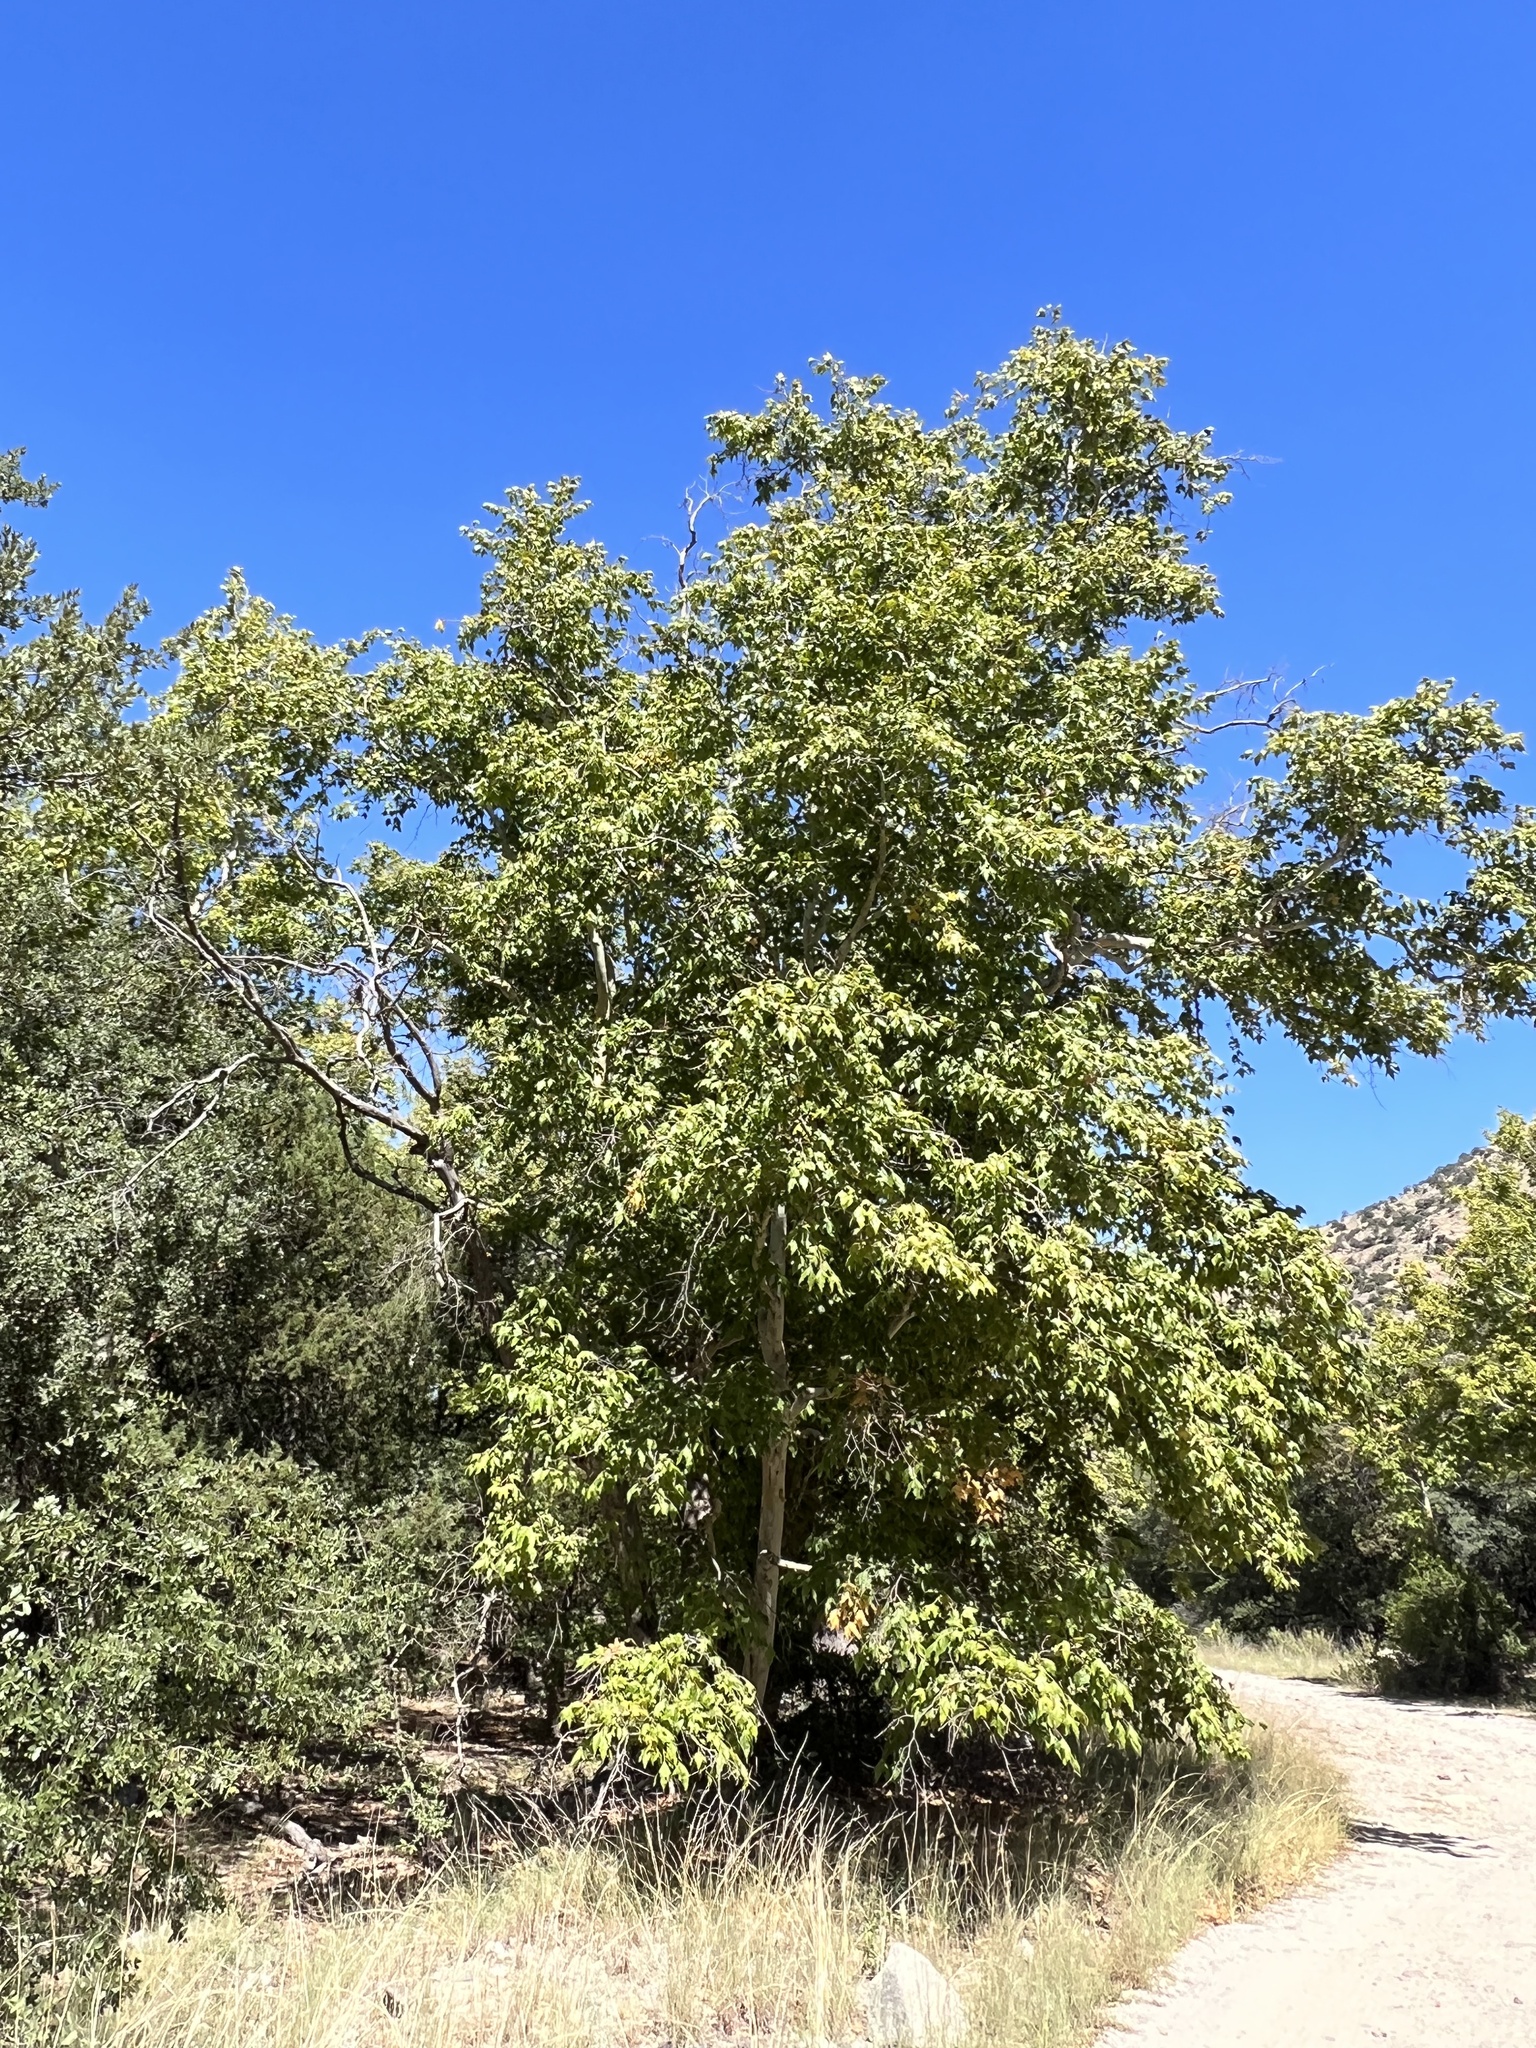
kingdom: Plantae
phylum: Tracheophyta
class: Magnoliopsida
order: Proteales
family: Platanaceae
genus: Platanus
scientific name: Platanus wrightii
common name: Arizona sycamore
